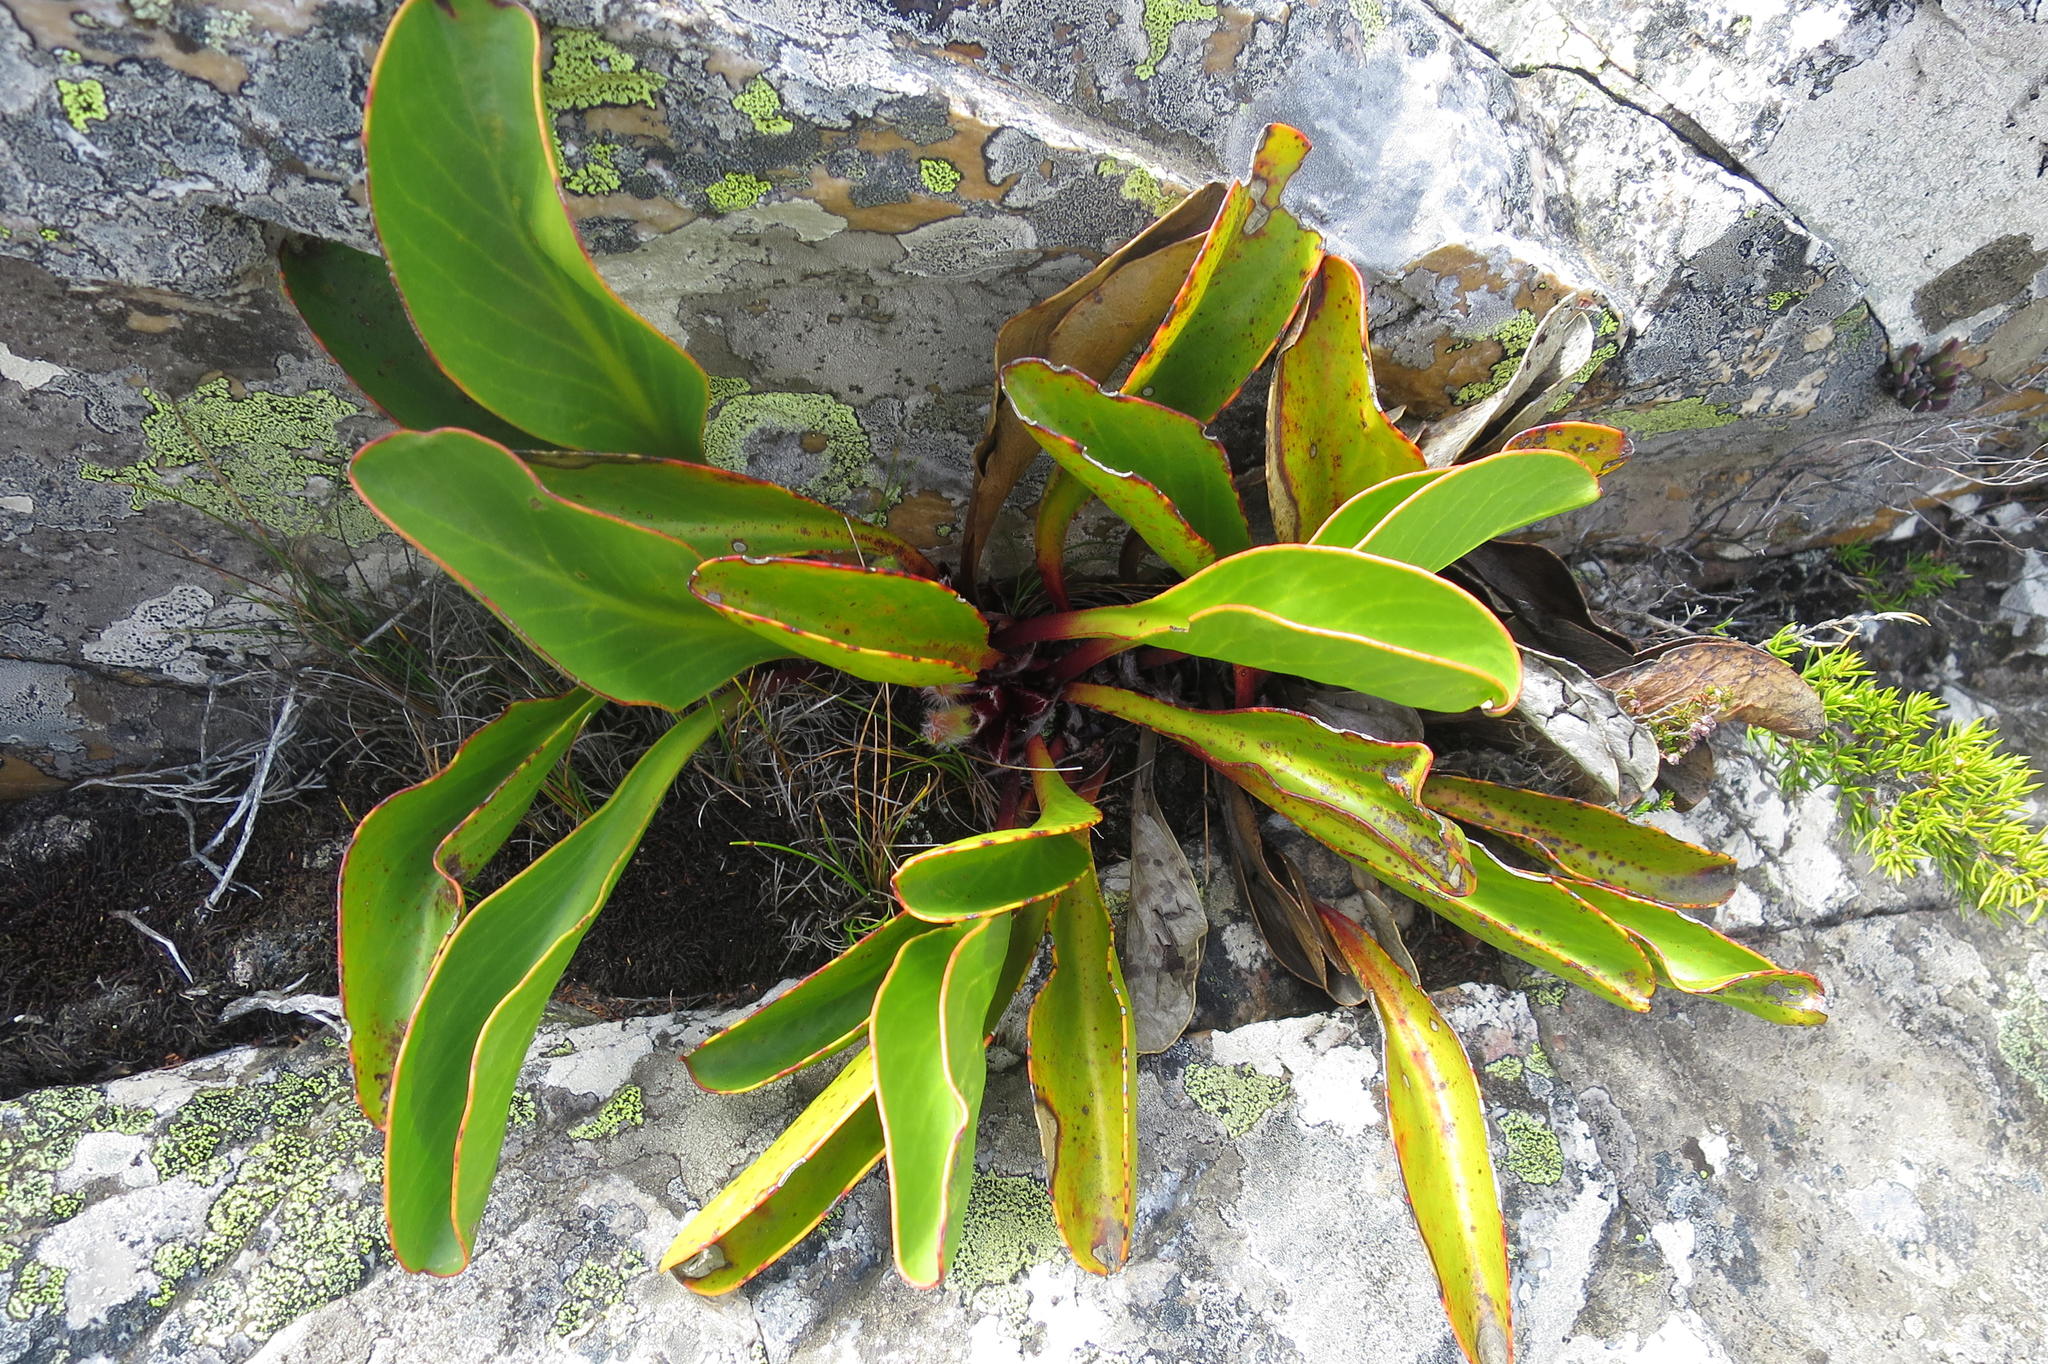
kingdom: Plantae
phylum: Tracheophyta
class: Magnoliopsida
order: Proteales
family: Proteaceae
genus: Protea
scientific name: Protea pruinosa
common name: Frosted sugarbush
